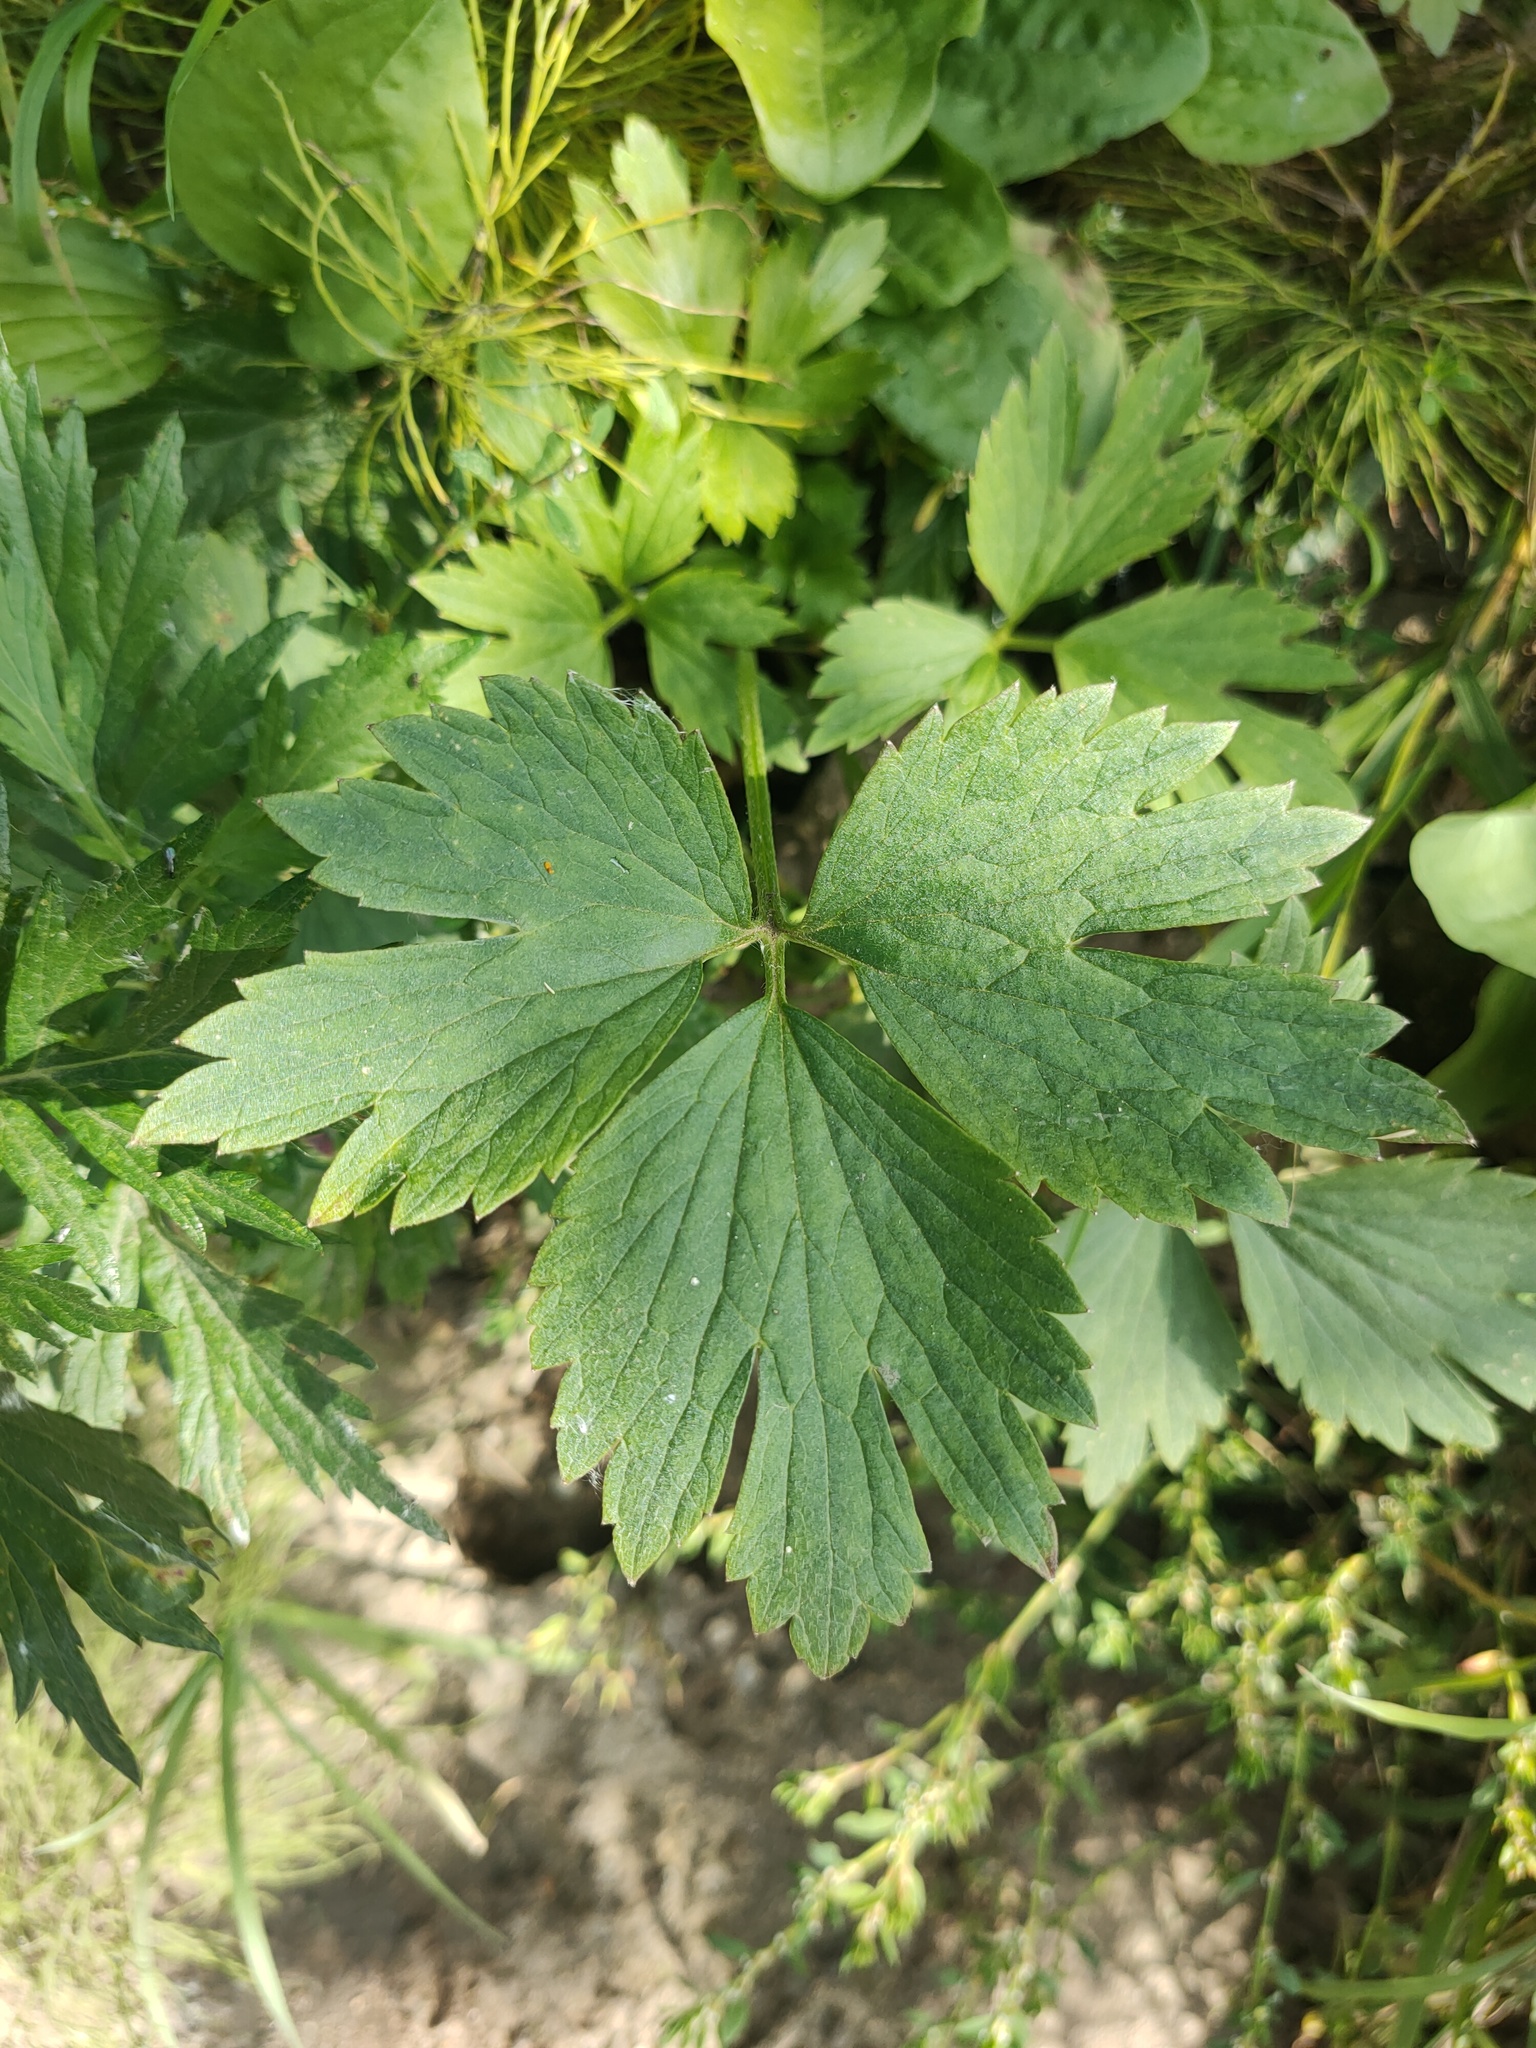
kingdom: Plantae
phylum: Tracheophyta
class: Magnoliopsida
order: Ranunculales
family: Ranunculaceae
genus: Ranunculus
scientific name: Ranunculus repens
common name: Creeping buttercup
